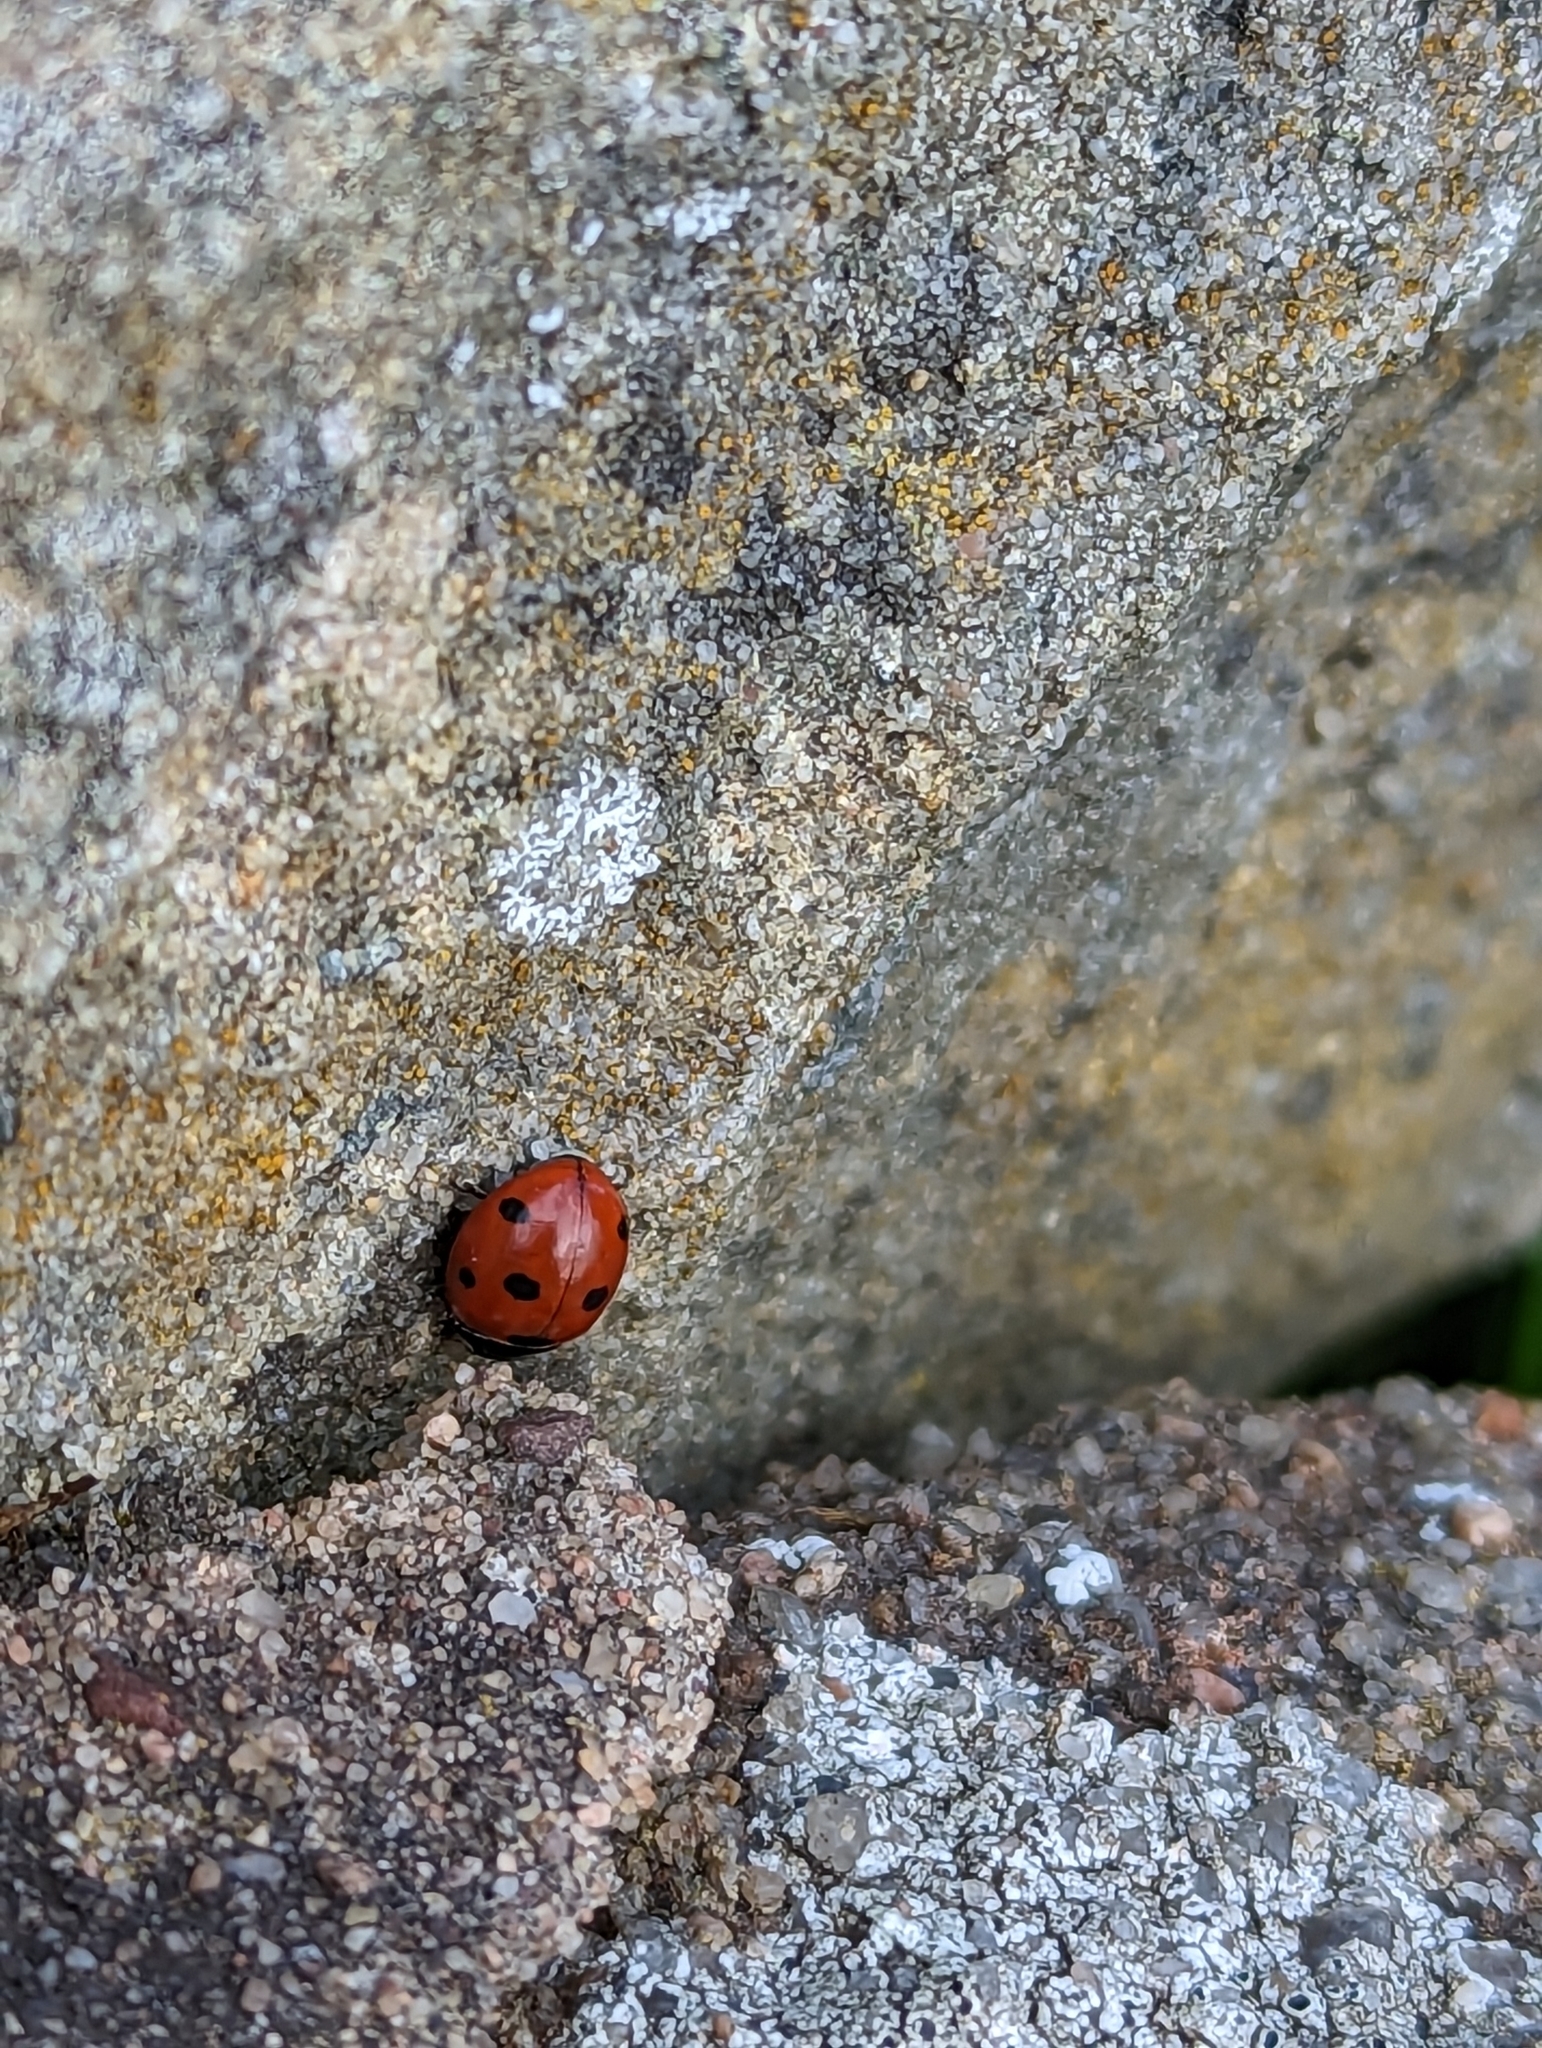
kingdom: Animalia
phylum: Arthropoda
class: Insecta
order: Coleoptera
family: Coccinellidae
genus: Coccinella
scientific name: Coccinella septempunctata
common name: Sevenspotted lady beetle
